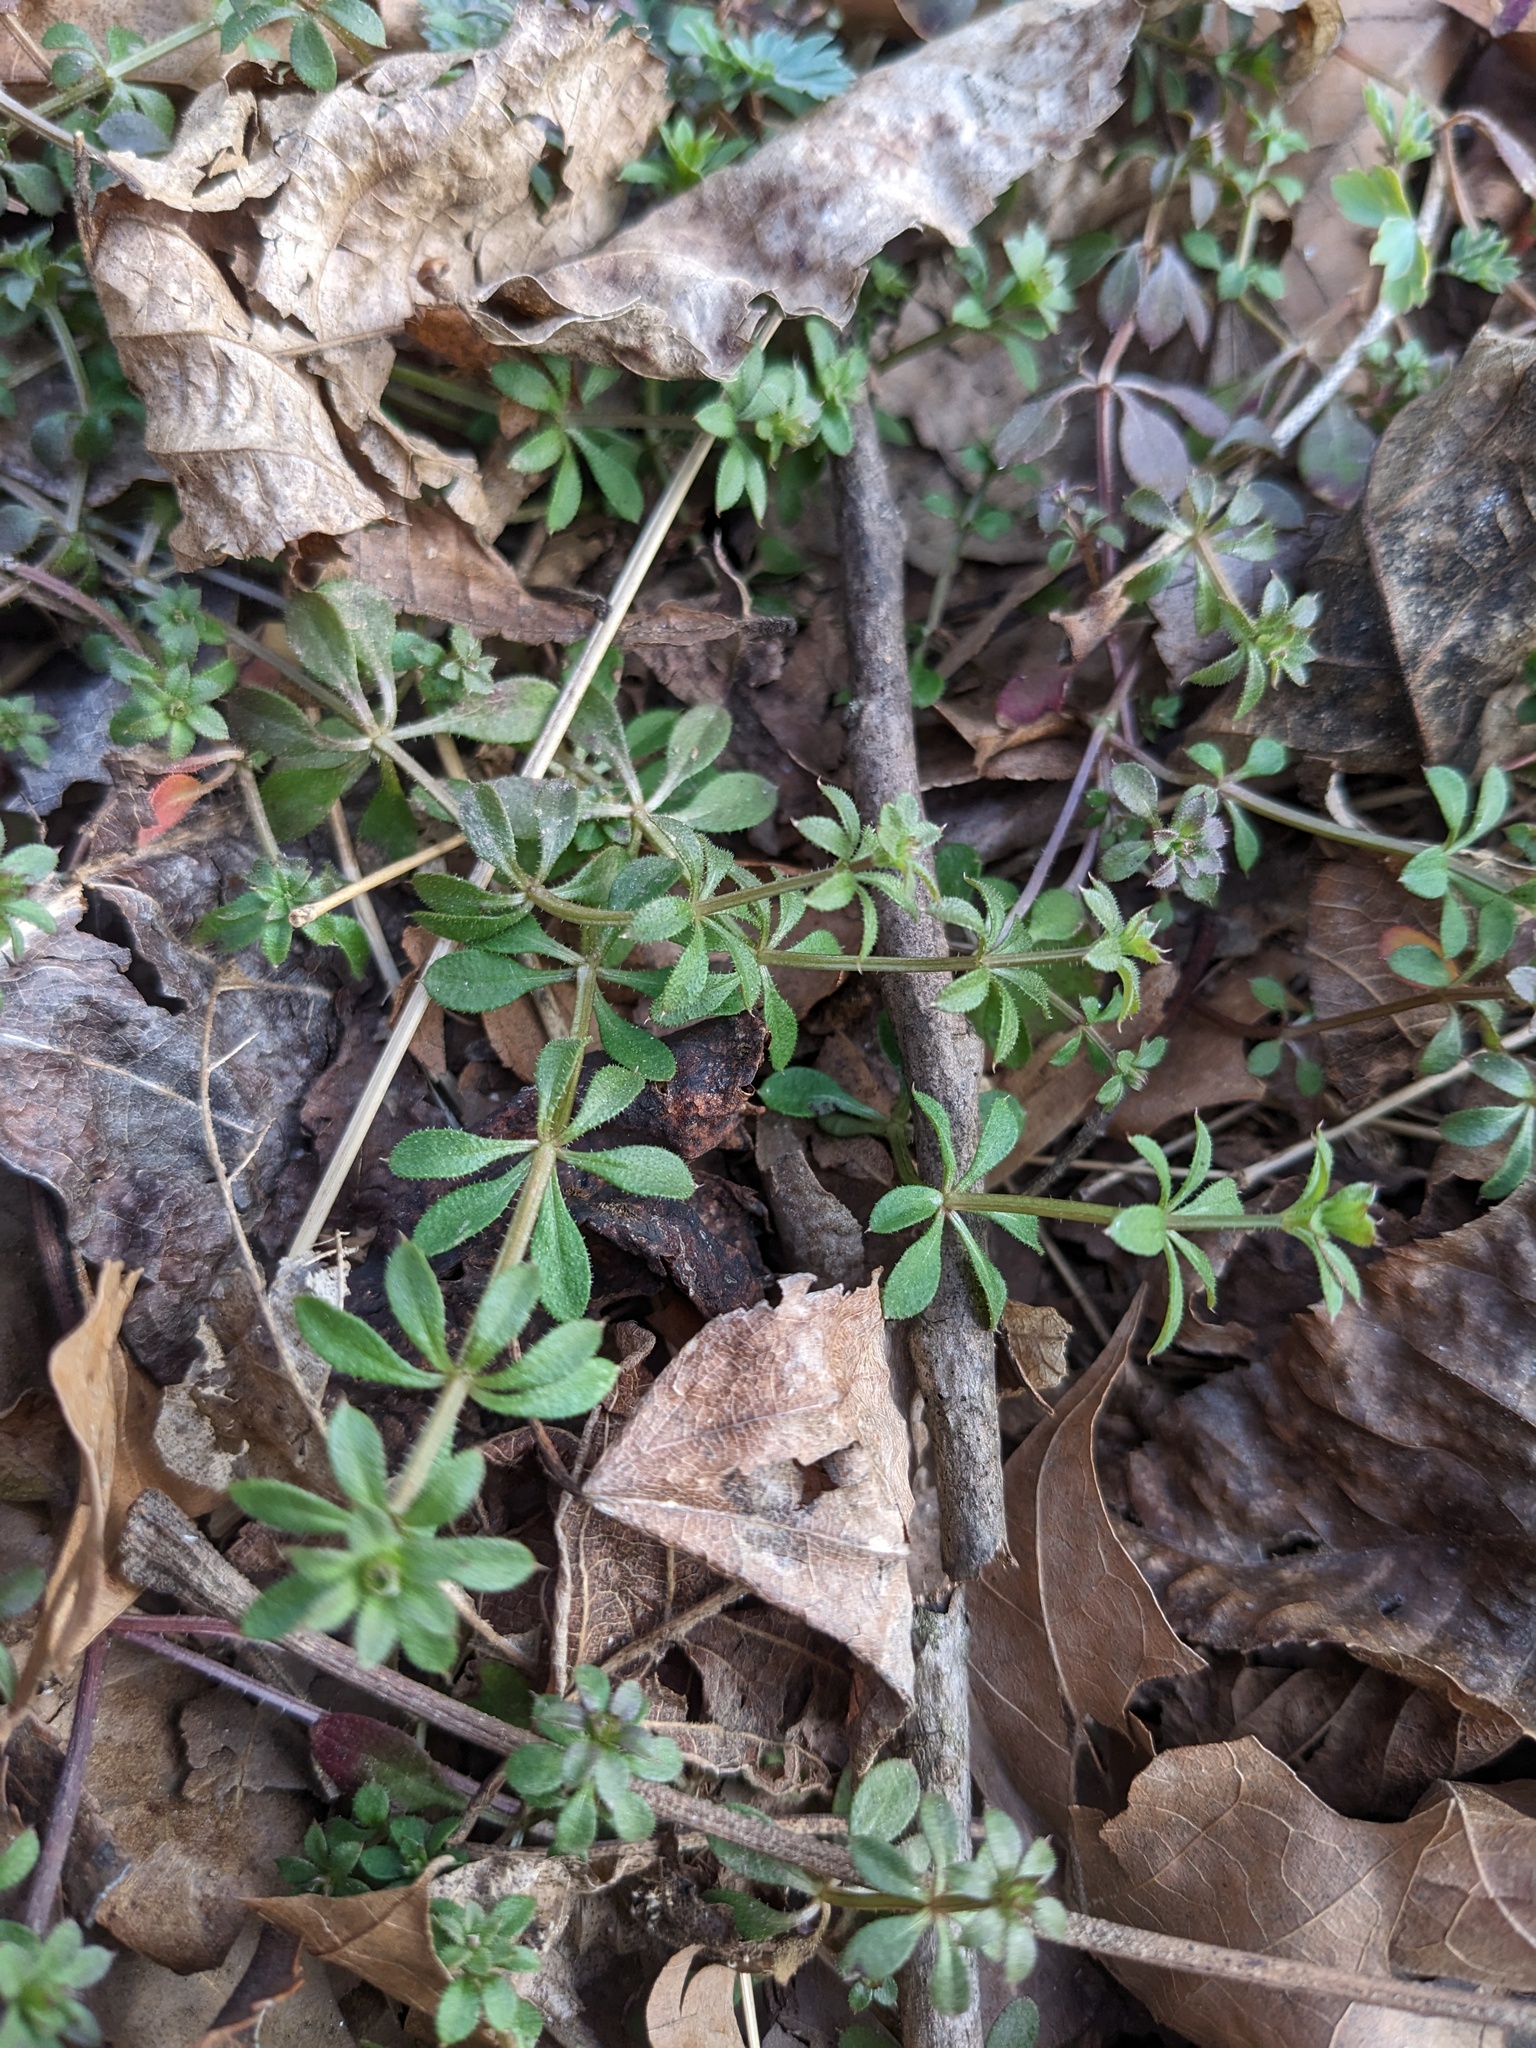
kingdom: Plantae
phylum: Tracheophyta
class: Magnoliopsida
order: Gentianales
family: Rubiaceae
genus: Galium
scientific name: Galium aparine
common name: Cleavers
